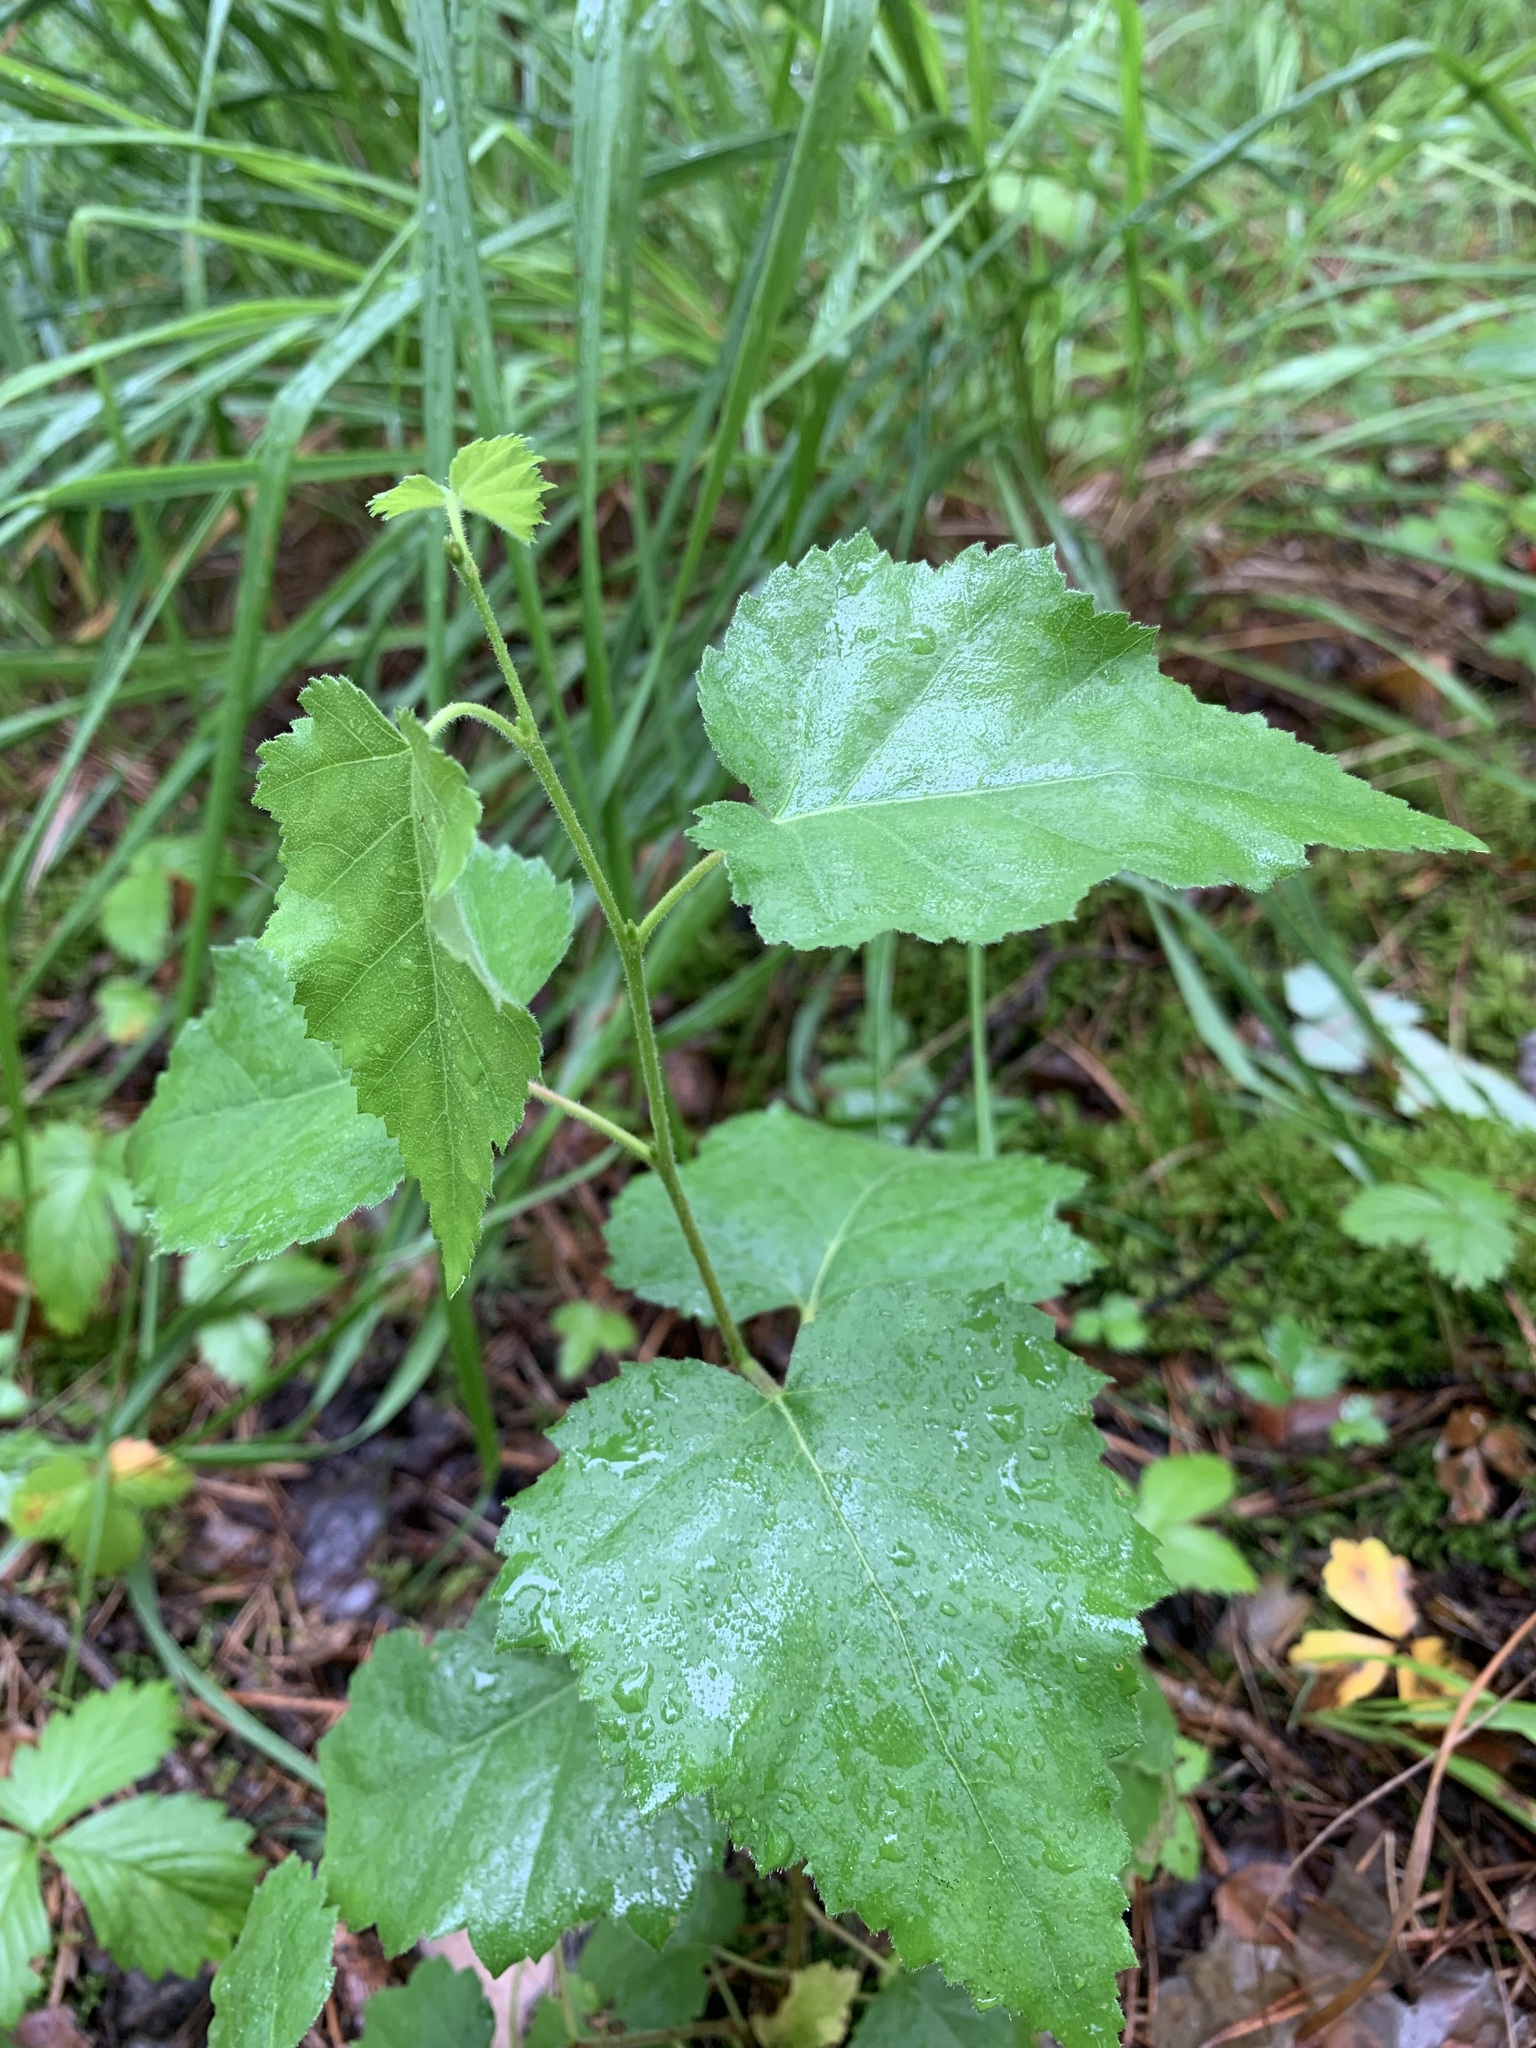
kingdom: Plantae
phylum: Tracheophyta
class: Magnoliopsida
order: Fagales
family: Betulaceae
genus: Betula
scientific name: Betula pubescens
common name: Downy birch
